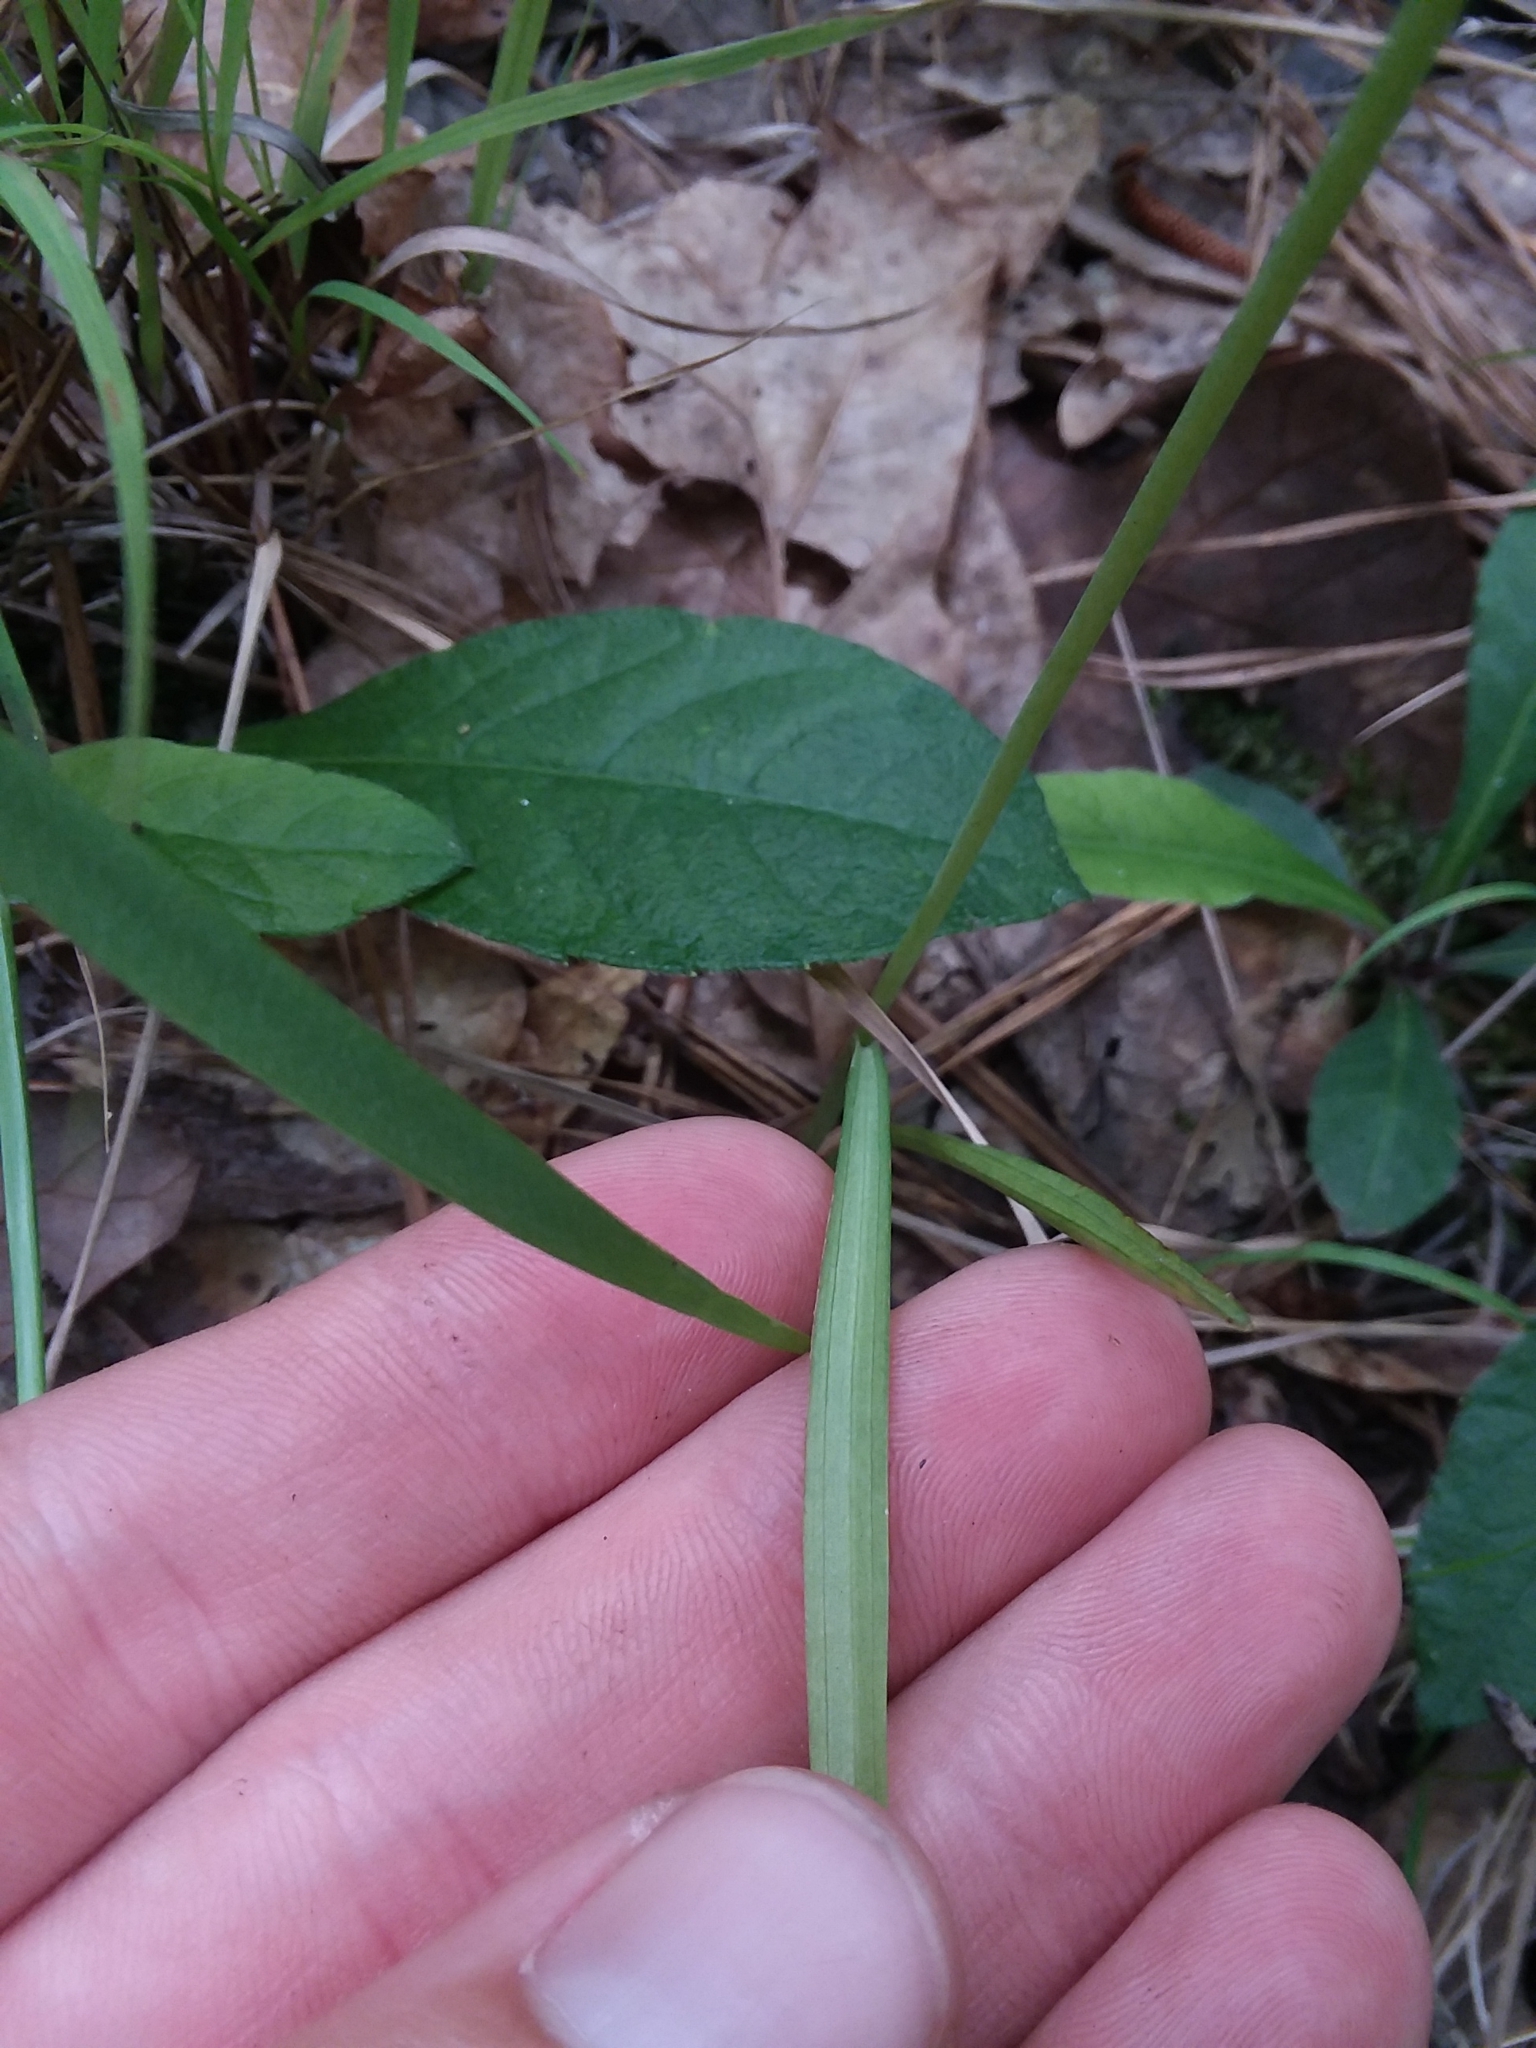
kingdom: Plantae
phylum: Tracheophyta
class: Liliopsida
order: Asparagales
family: Orchidaceae
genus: Spiranthes
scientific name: Spiranthes praecox
